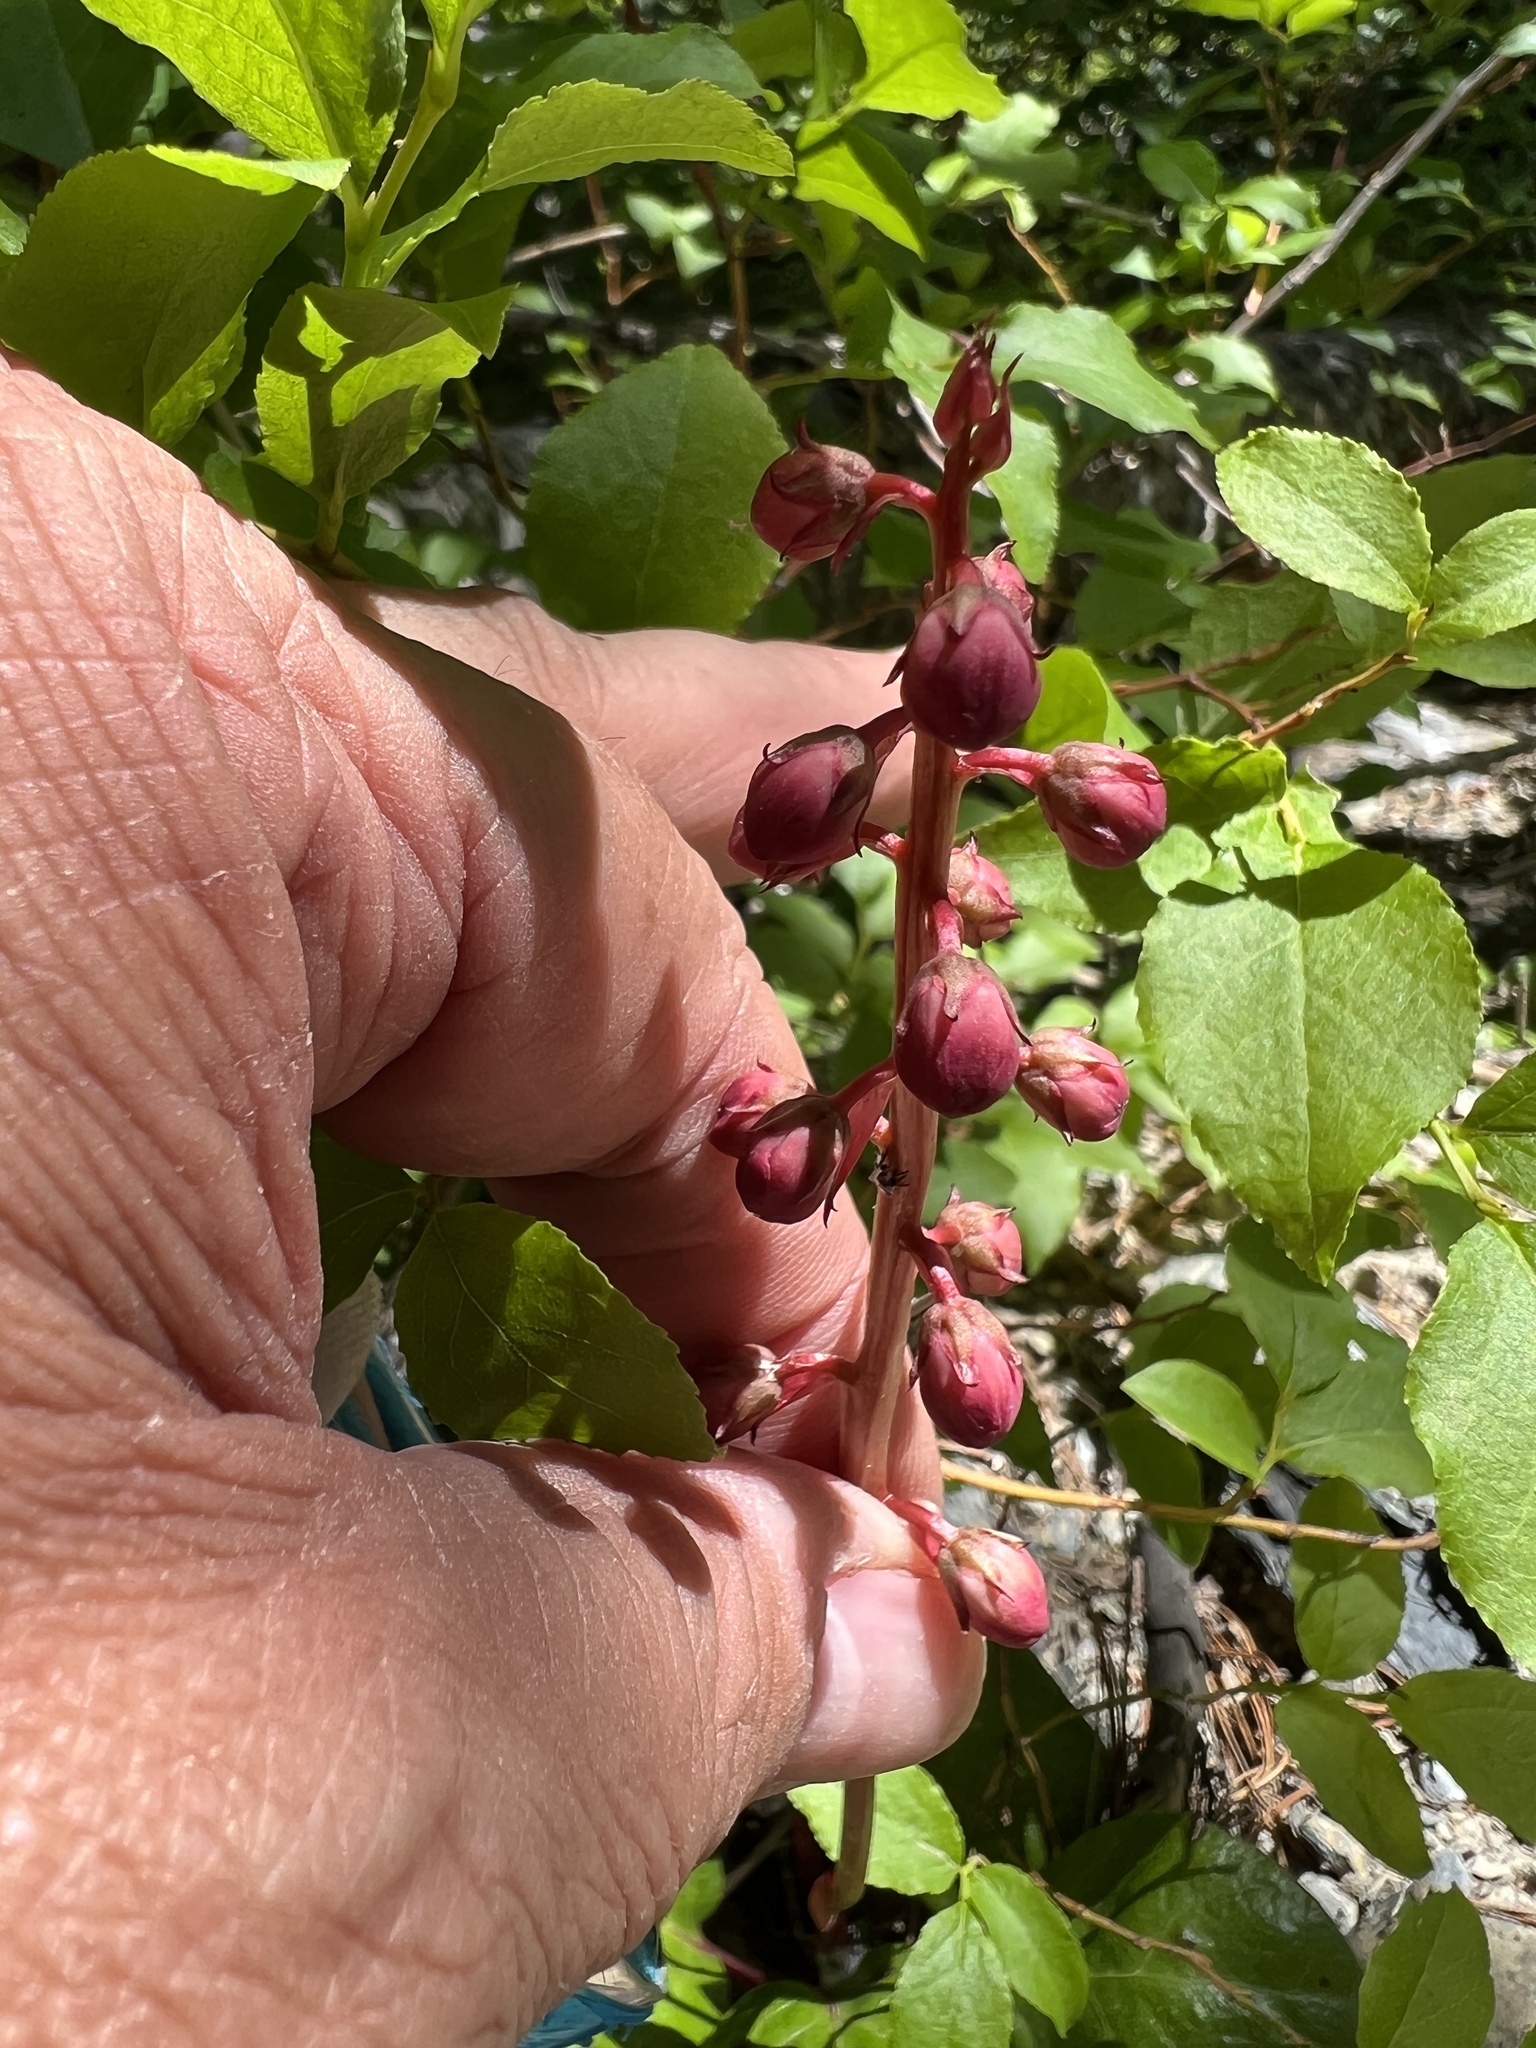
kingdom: Plantae
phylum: Tracheophyta
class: Magnoliopsida
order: Ericales
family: Ericaceae
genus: Pyrola
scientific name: Pyrola asarifolia
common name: Bog wintergreen
